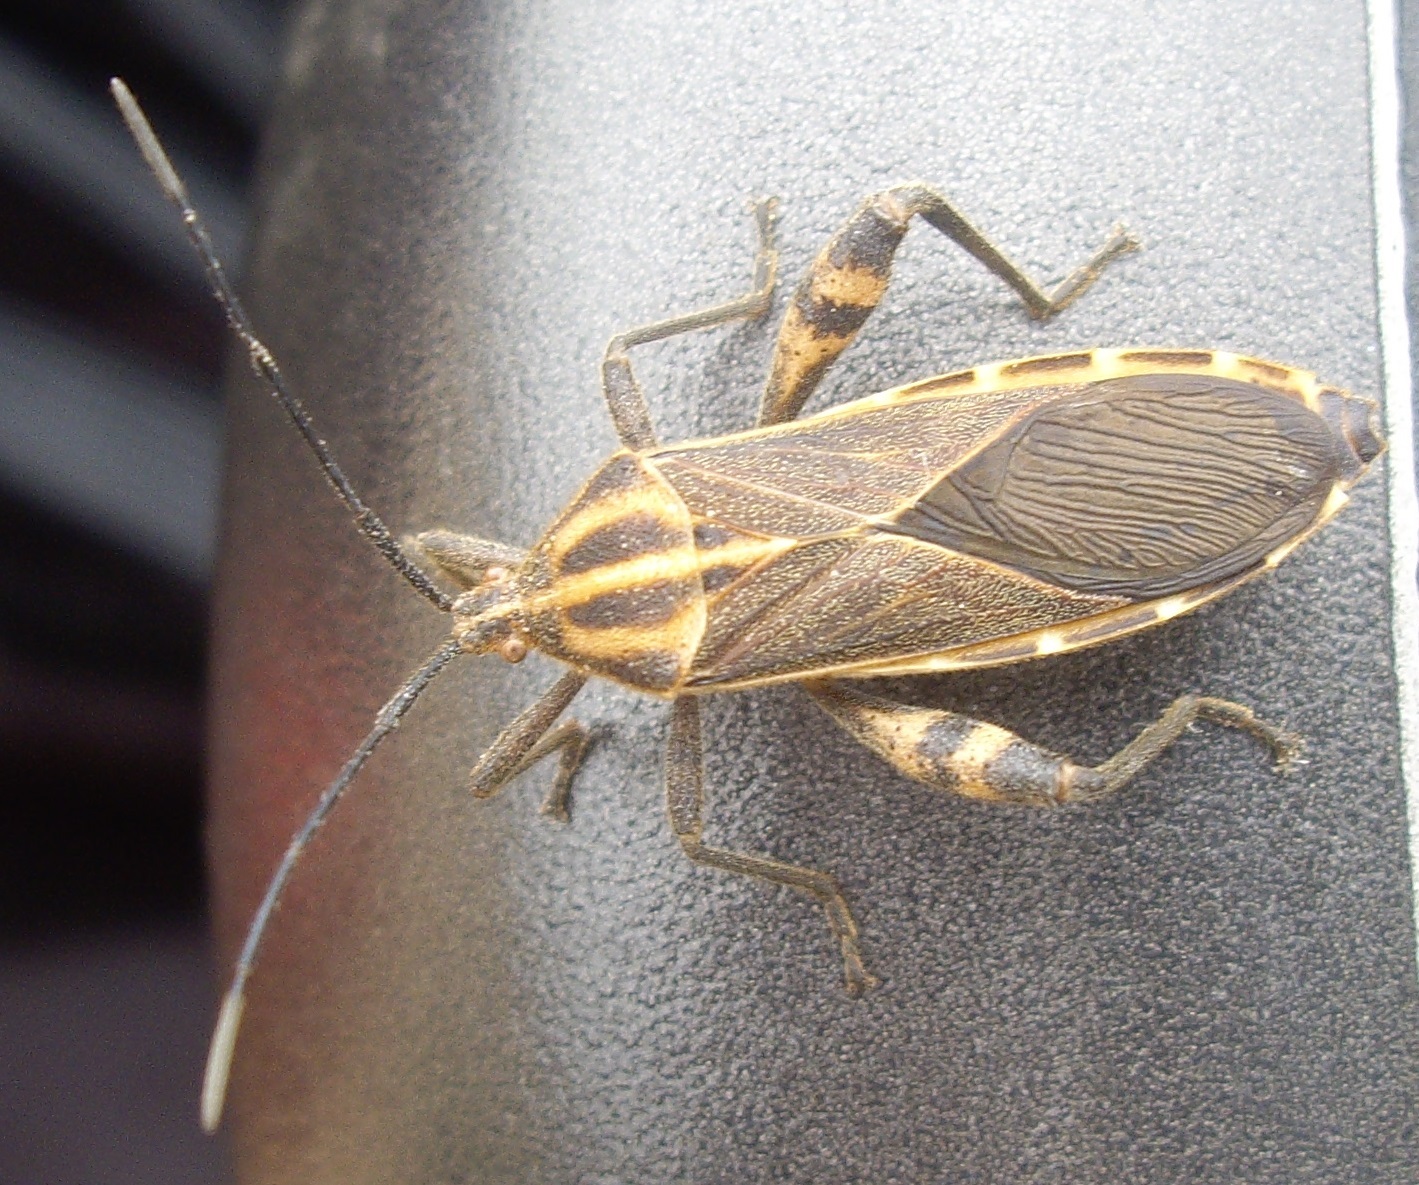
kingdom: Animalia
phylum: Arthropoda
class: Insecta
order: Hemiptera
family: Coreidae
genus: Physomerus
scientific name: Physomerus grossipes
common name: Squash bug
